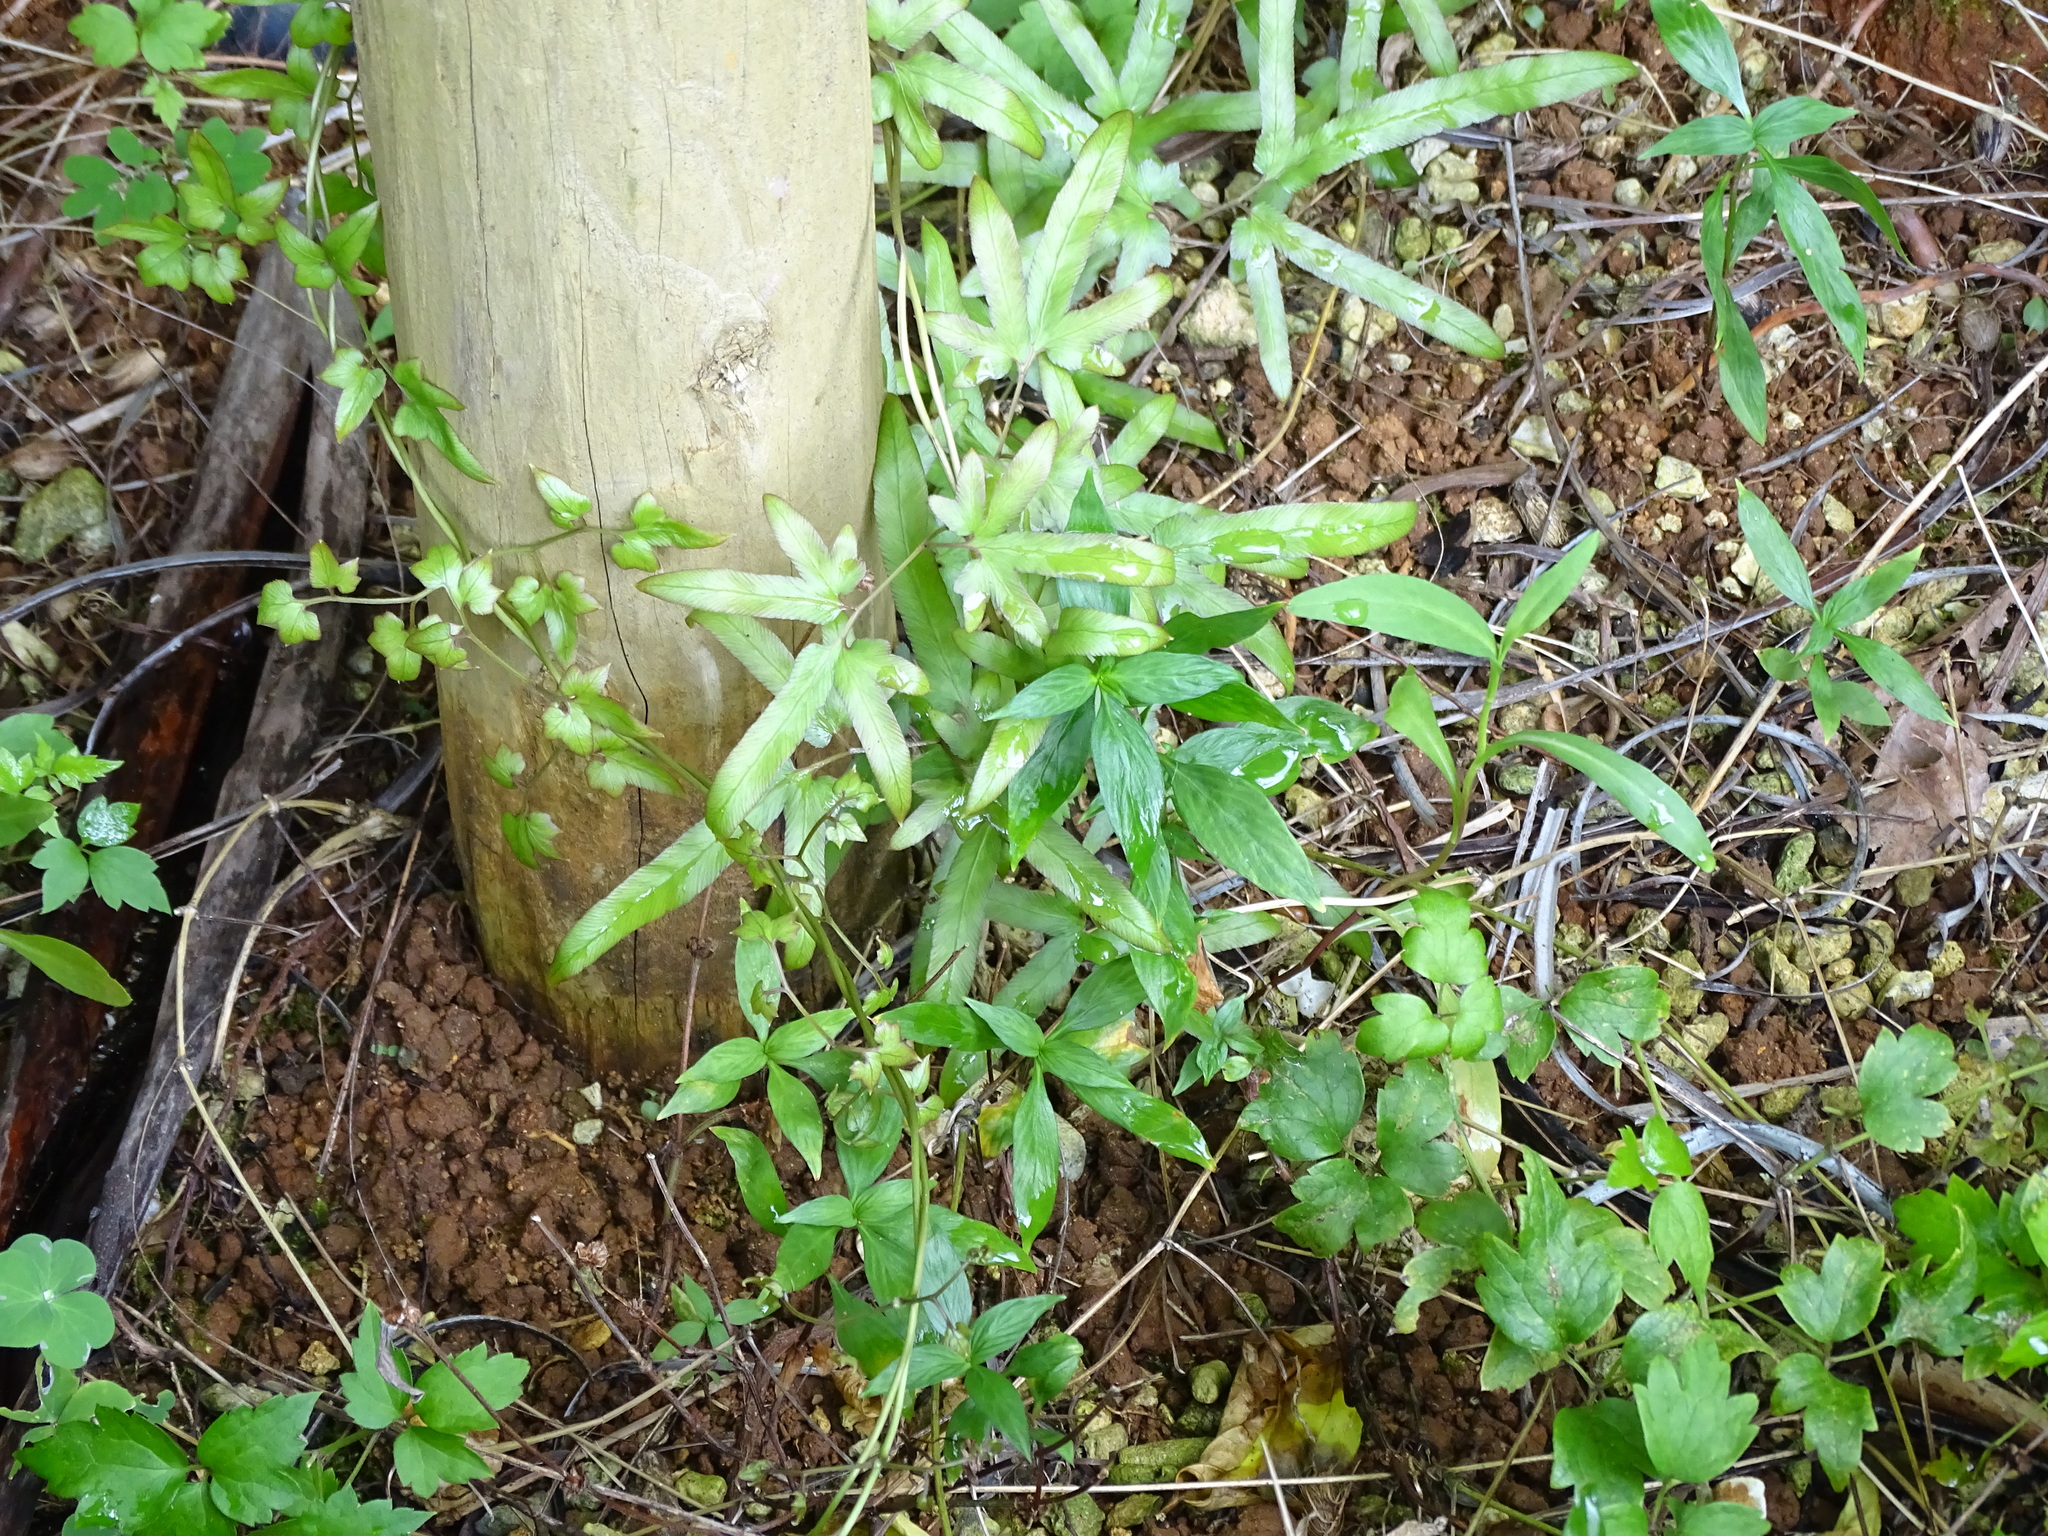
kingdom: Plantae
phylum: Tracheophyta
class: Polypodiopsida
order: Schizaeales
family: Lygodiaceae
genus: Lygodium
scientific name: Lygodium japonicum
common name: Japanese climbing fern
